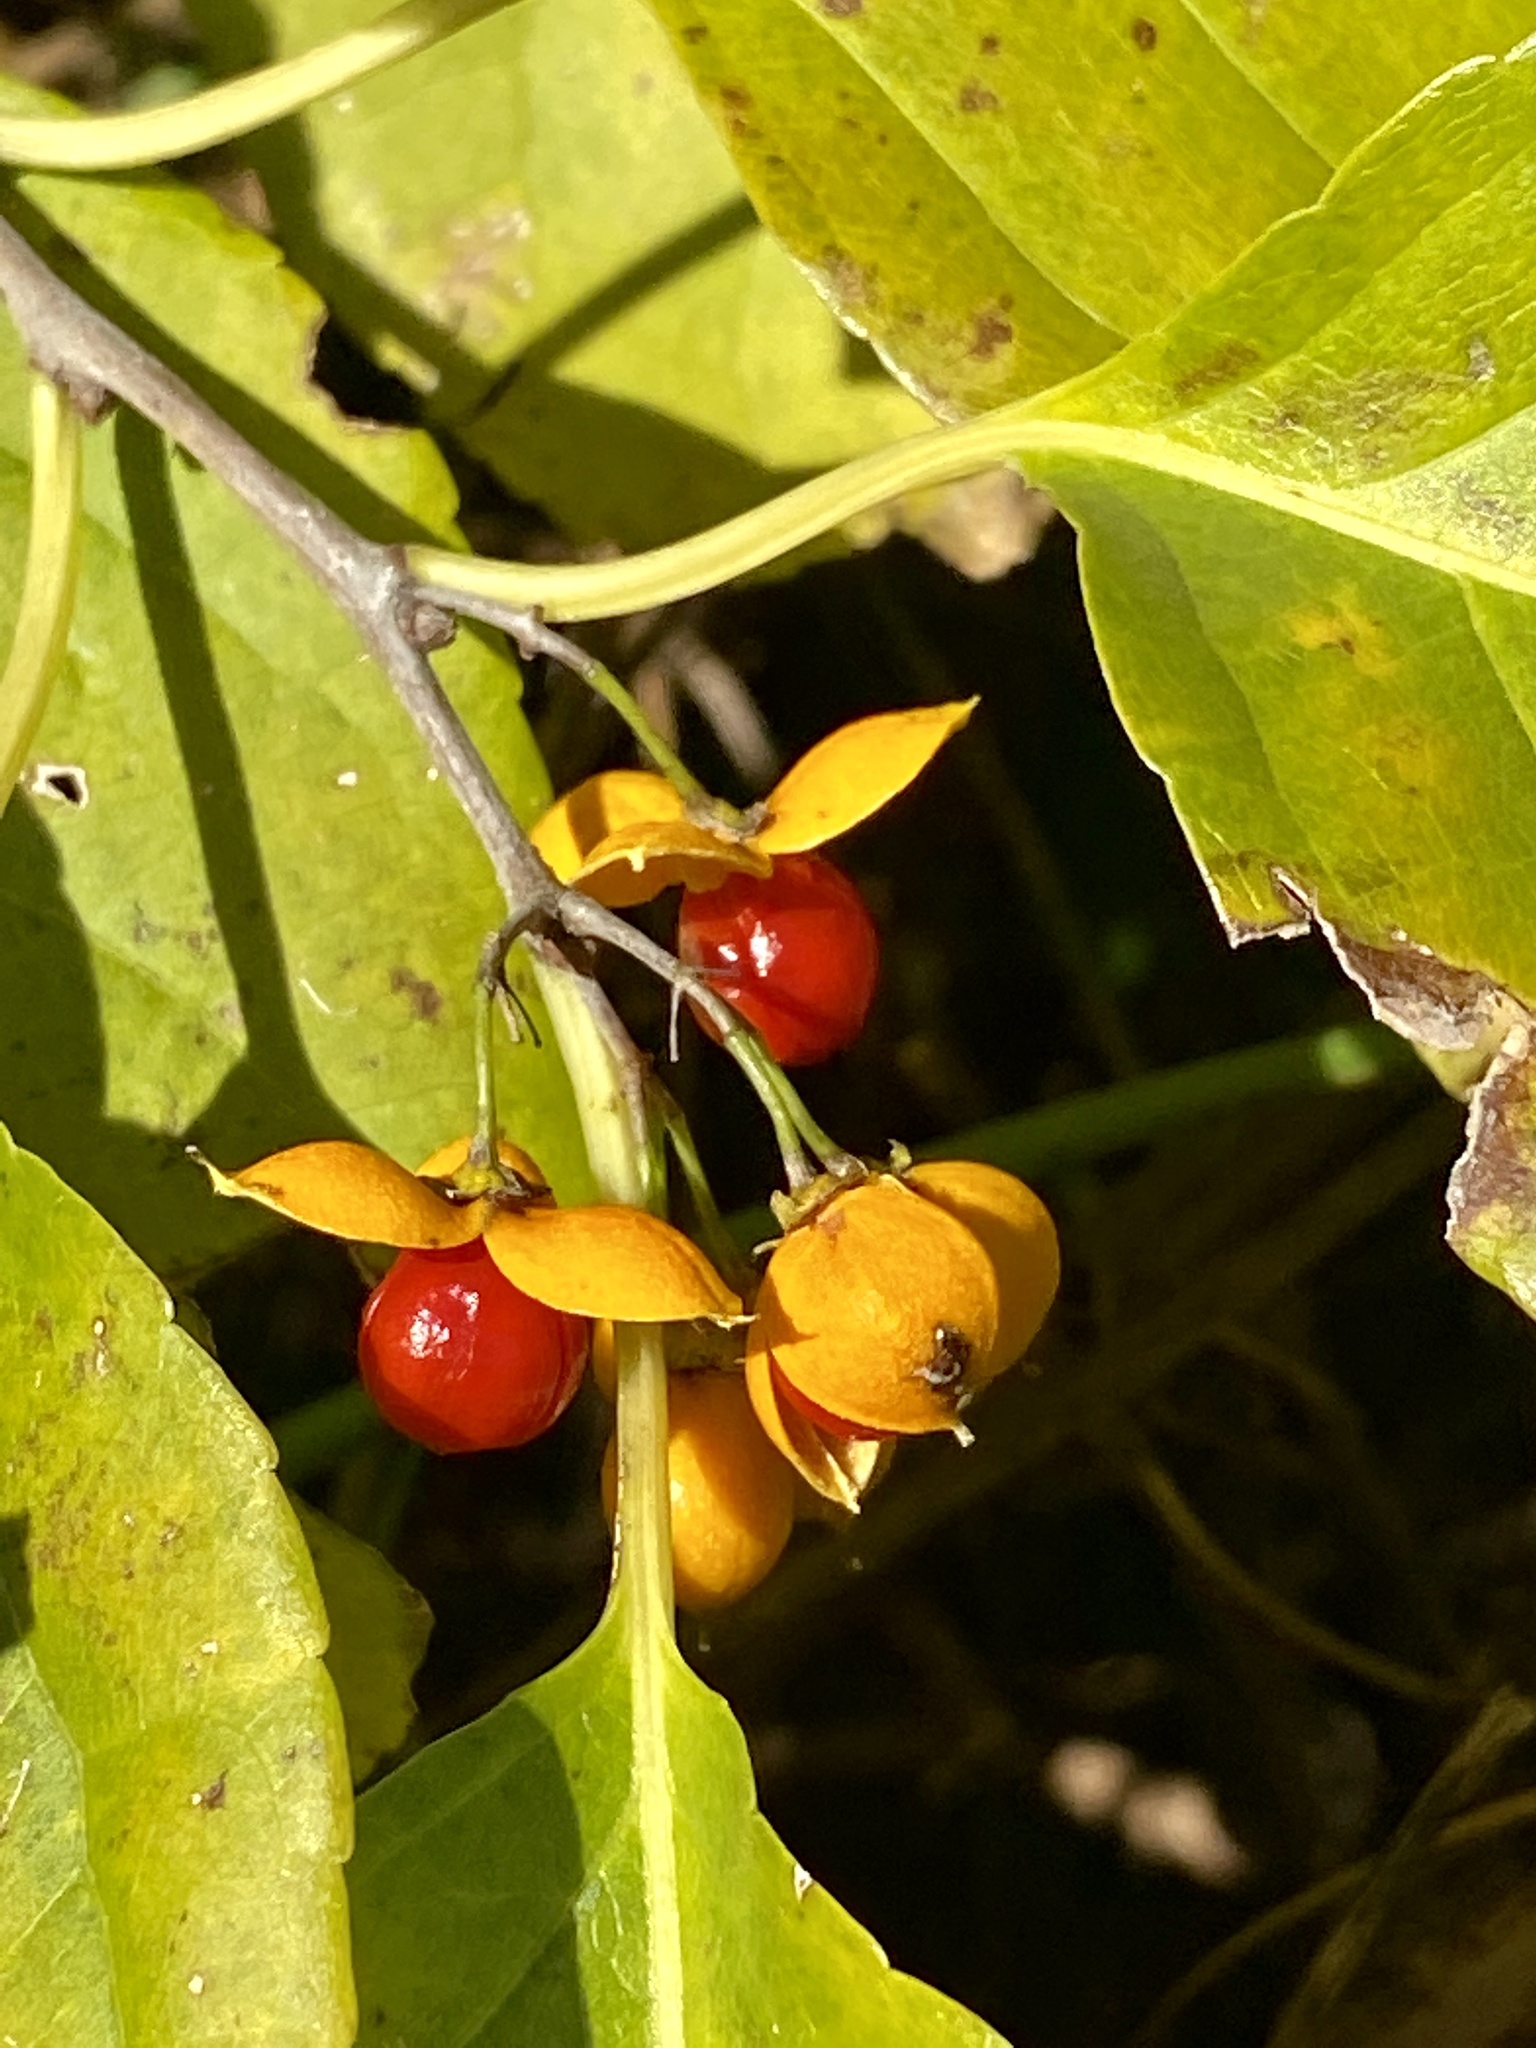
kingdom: Plantae
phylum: Tracheophyta
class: Magnoliopsida
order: Celastrales
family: Celastraceae
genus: Celastrus
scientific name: Celastrus orbiculatus
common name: Oriental bittersweet
